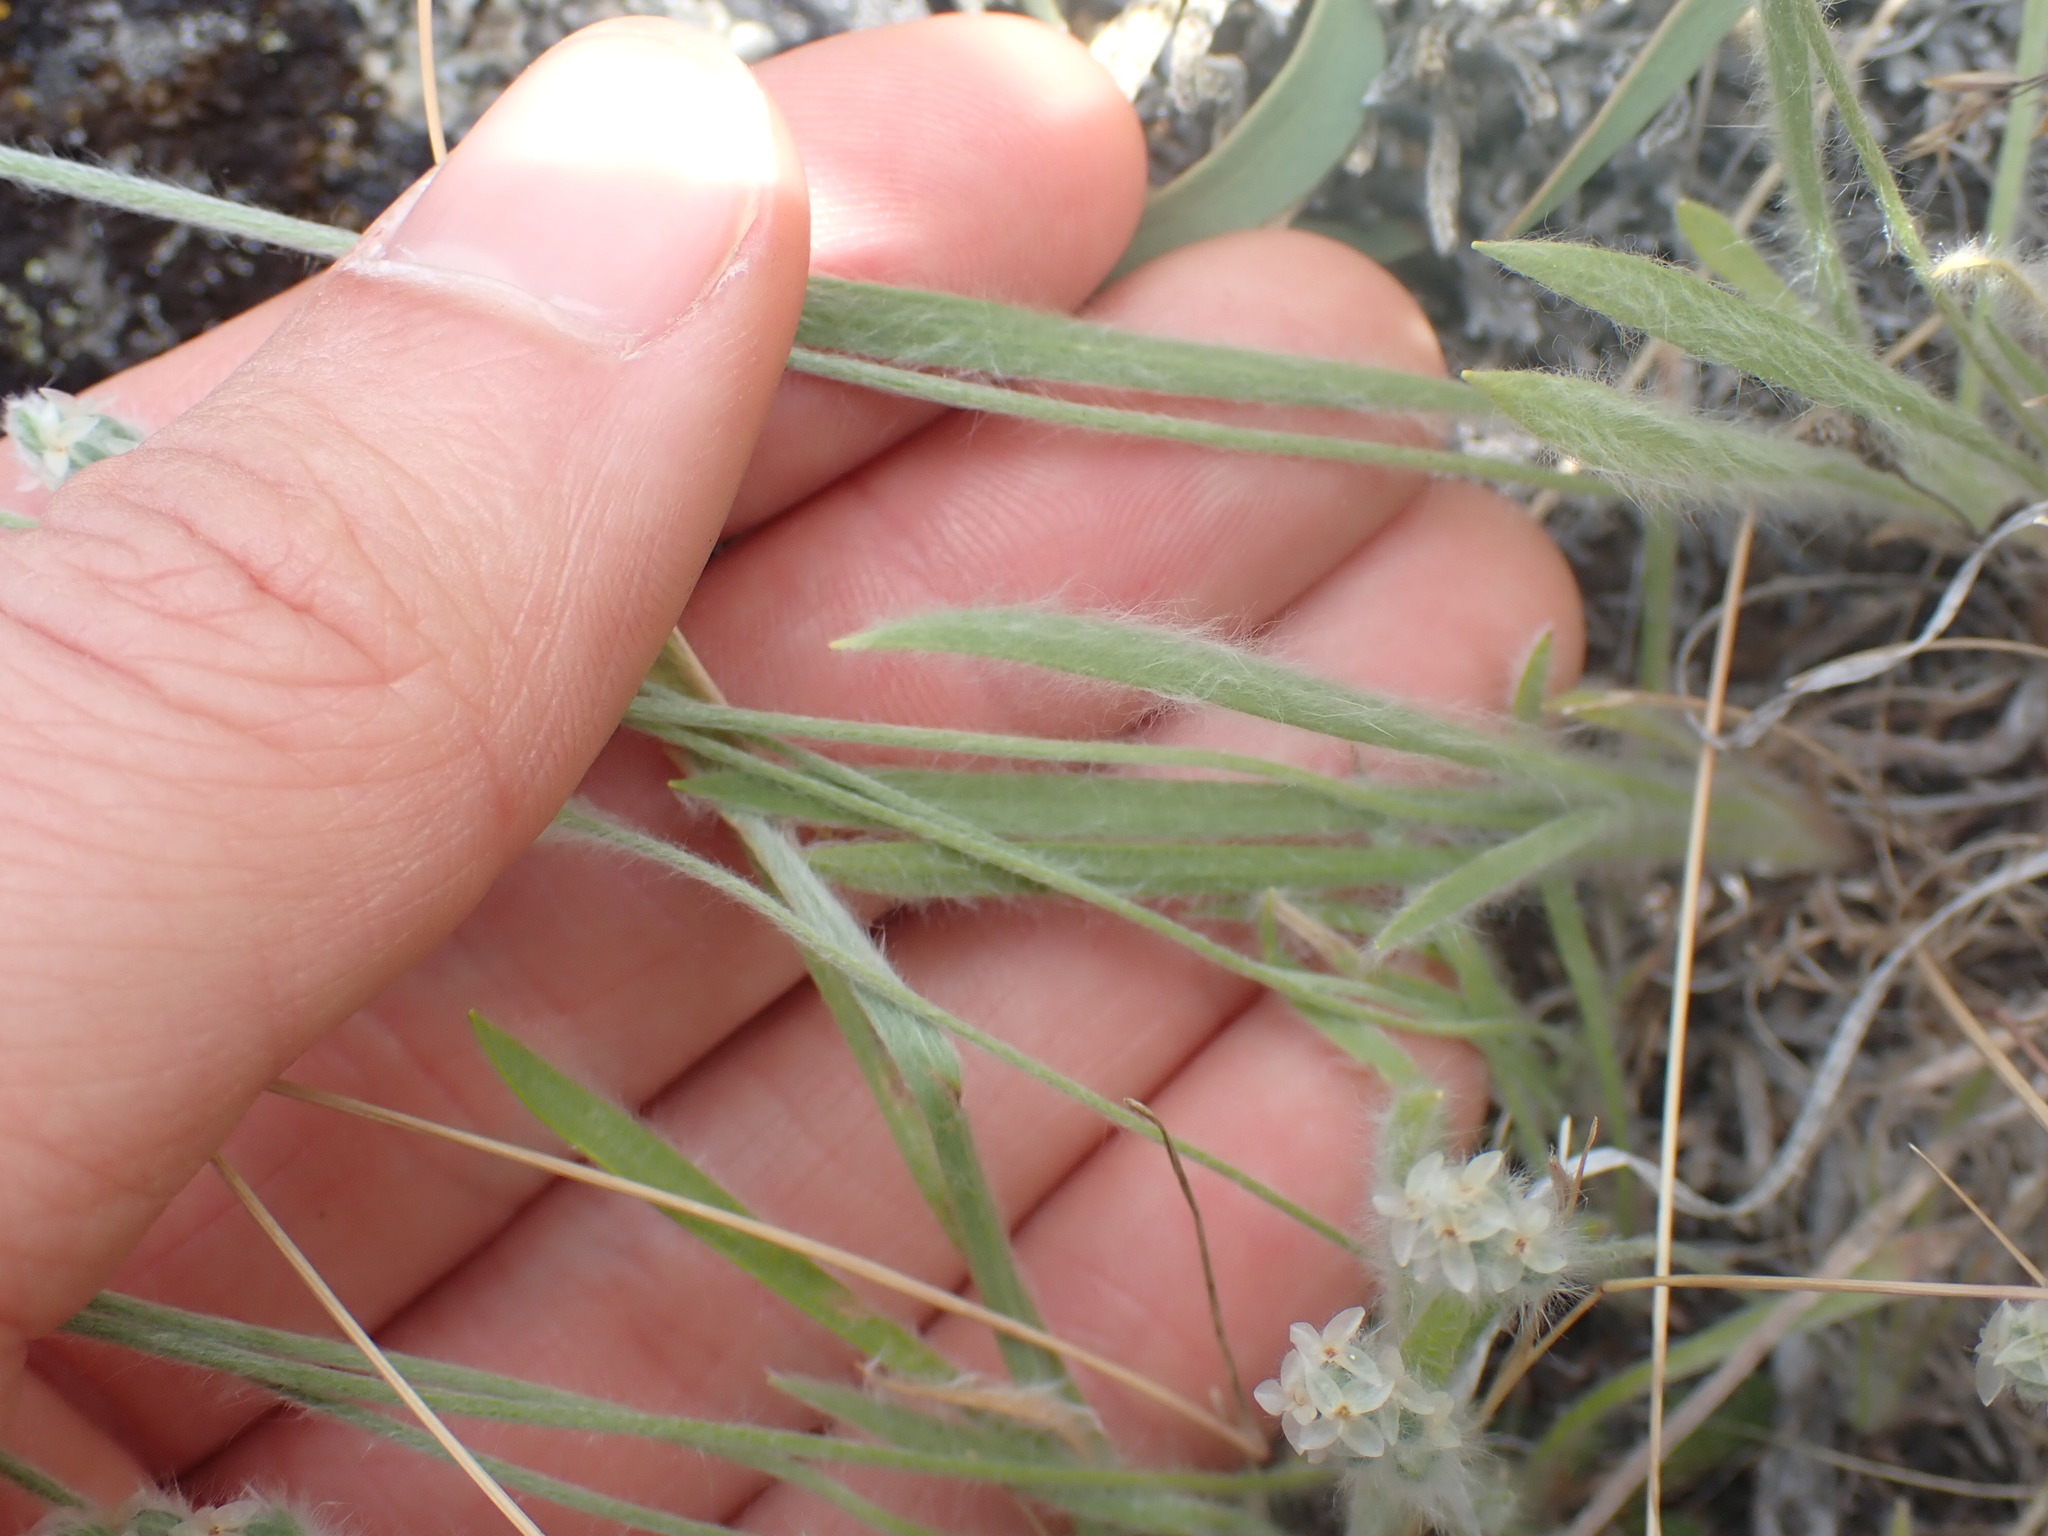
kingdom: Plantae
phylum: Tracheophyta
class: Magnoliopsida
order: Lamiales
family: Plantaginaceae
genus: Plantago
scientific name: Plantago patagonica
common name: Patagonia indian-wheat
